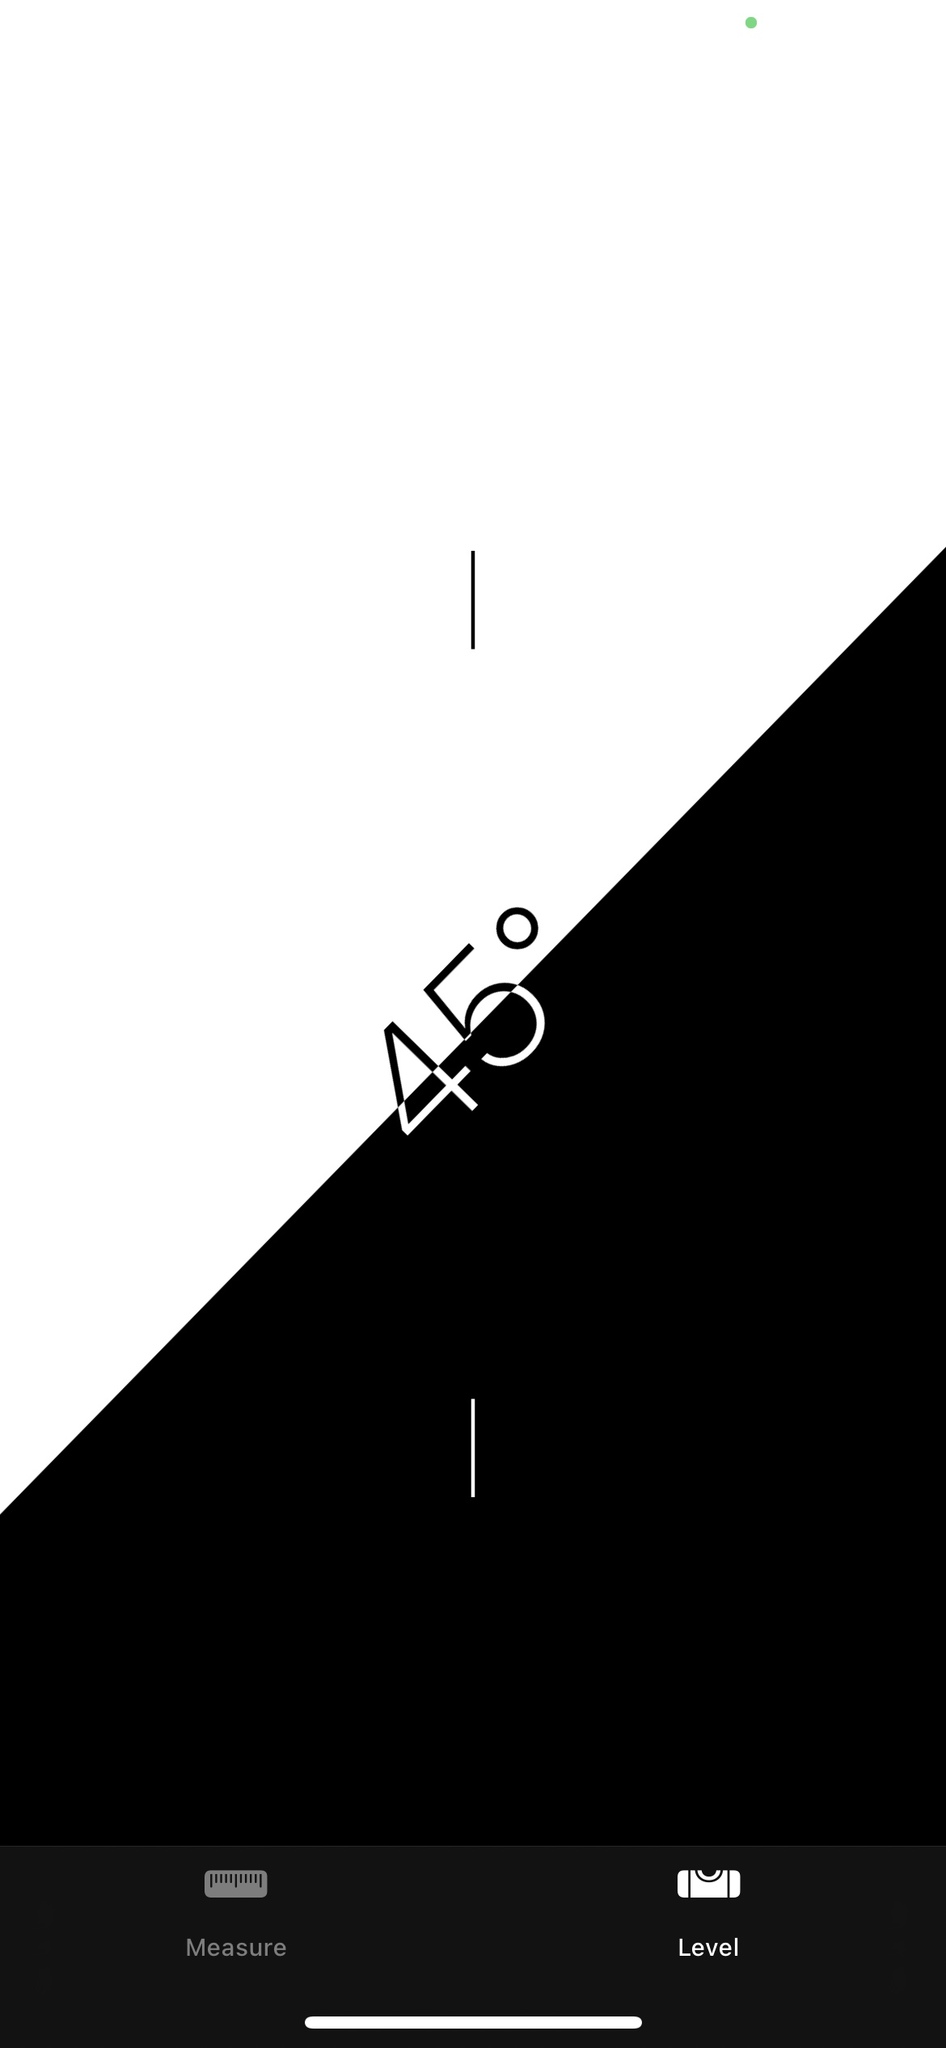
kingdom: Plantae
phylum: Tracheophyta
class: Magnoliopsida
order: Gentianales
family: Apocynaceae
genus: Asclepias
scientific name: Asclepias speciosa
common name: Showy milkweed
